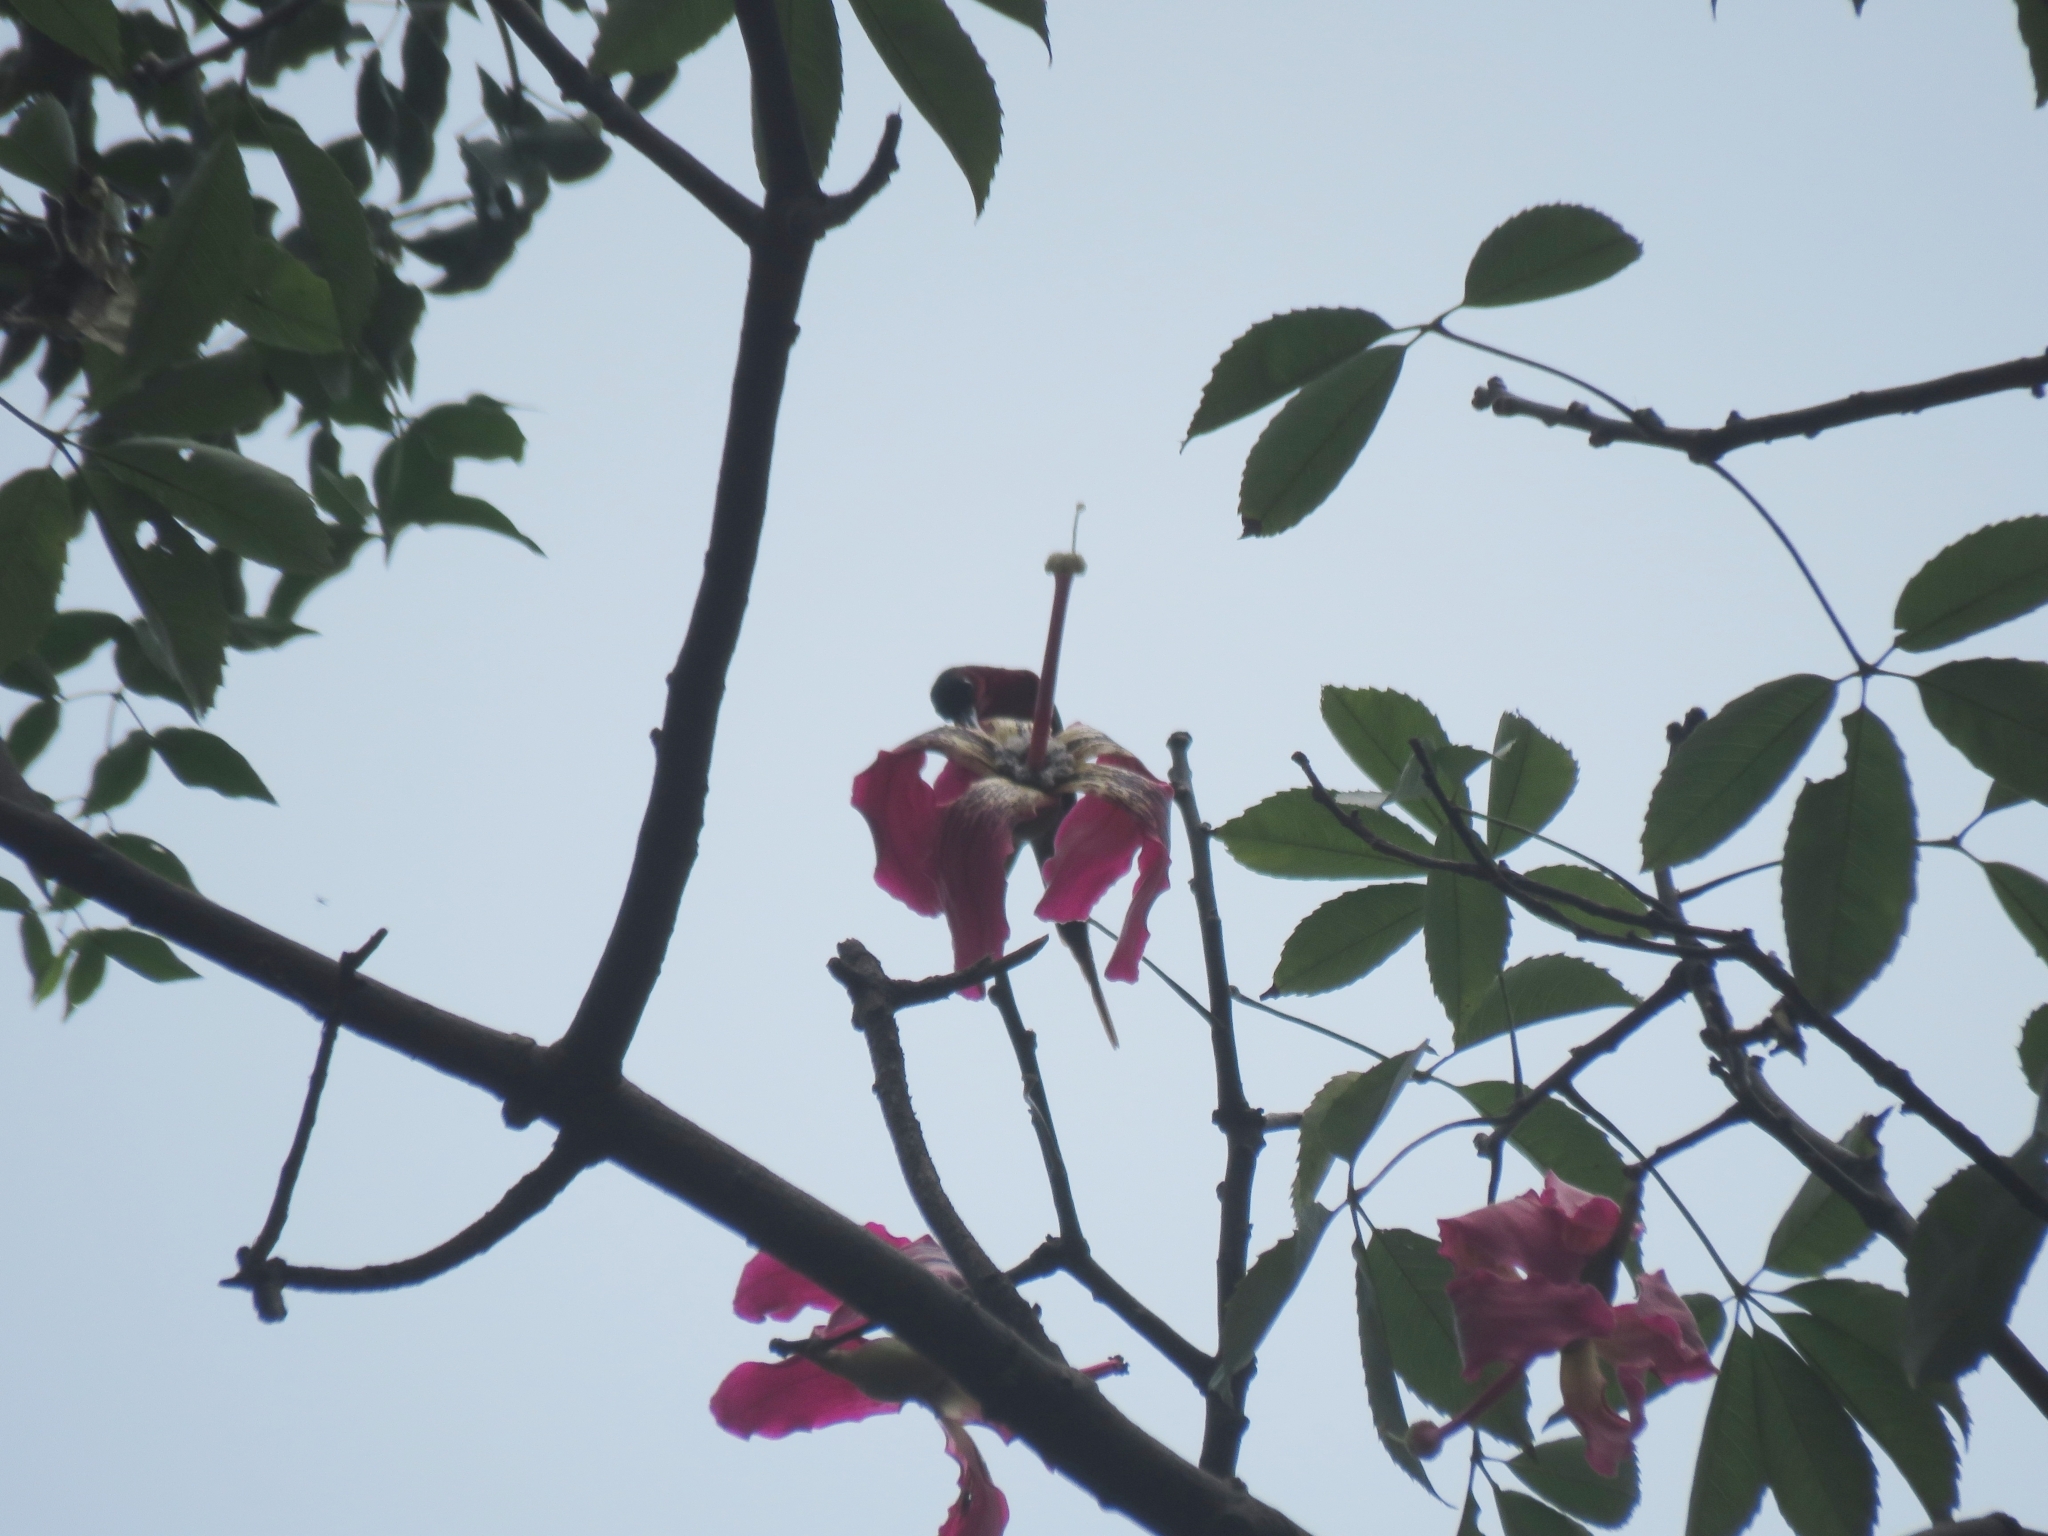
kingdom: Animalia
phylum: Chordata
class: Aves
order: Passeriformes
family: Nectariniidae
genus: Aethopyga
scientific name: Aethopyga siparaja
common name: Crimson sunbird
